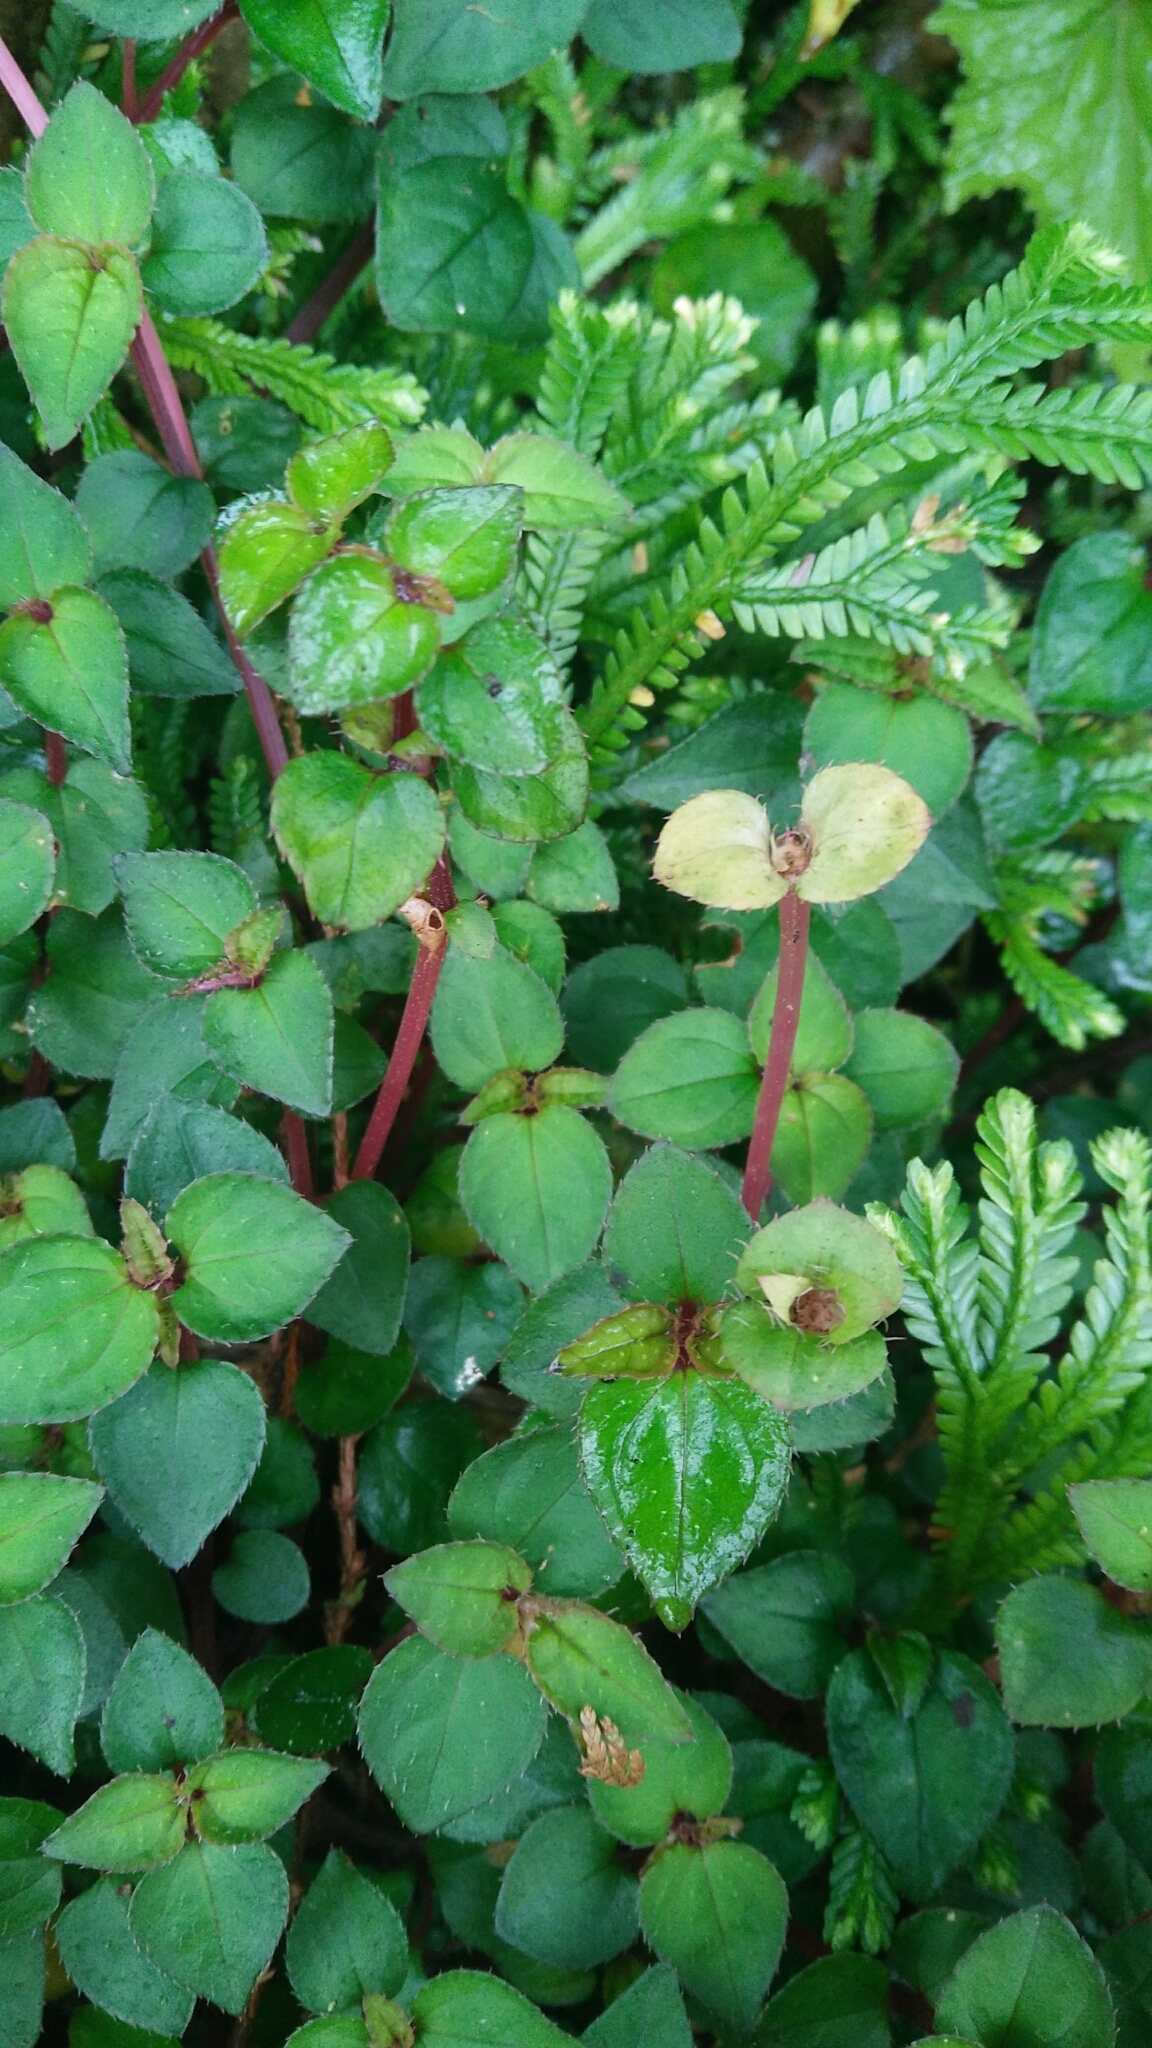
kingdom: Plantae
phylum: Tracheophyta
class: Magnoliopsida
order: Myrtales
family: Melastomataceae
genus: Sarcopyramis
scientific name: Sarcopyramis bodinieri
